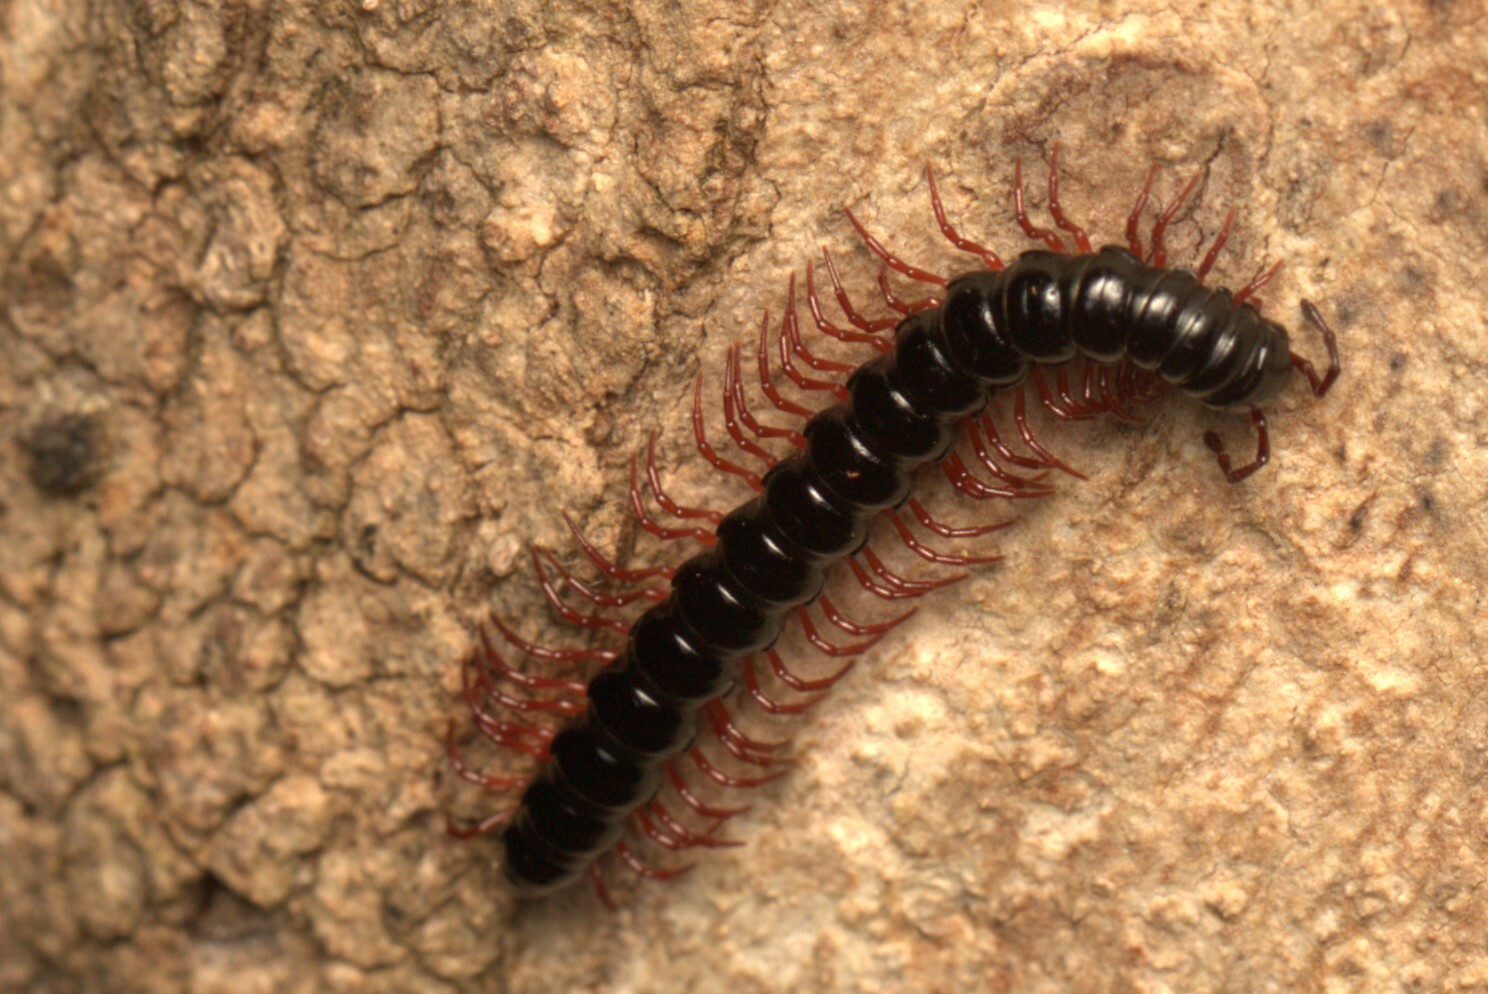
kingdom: Animalia
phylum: Arthropoda
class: Diplopoda
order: Polydesmida
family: Paradoxosomatidae
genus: Heterocladosoma
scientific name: Heterocladosoma
